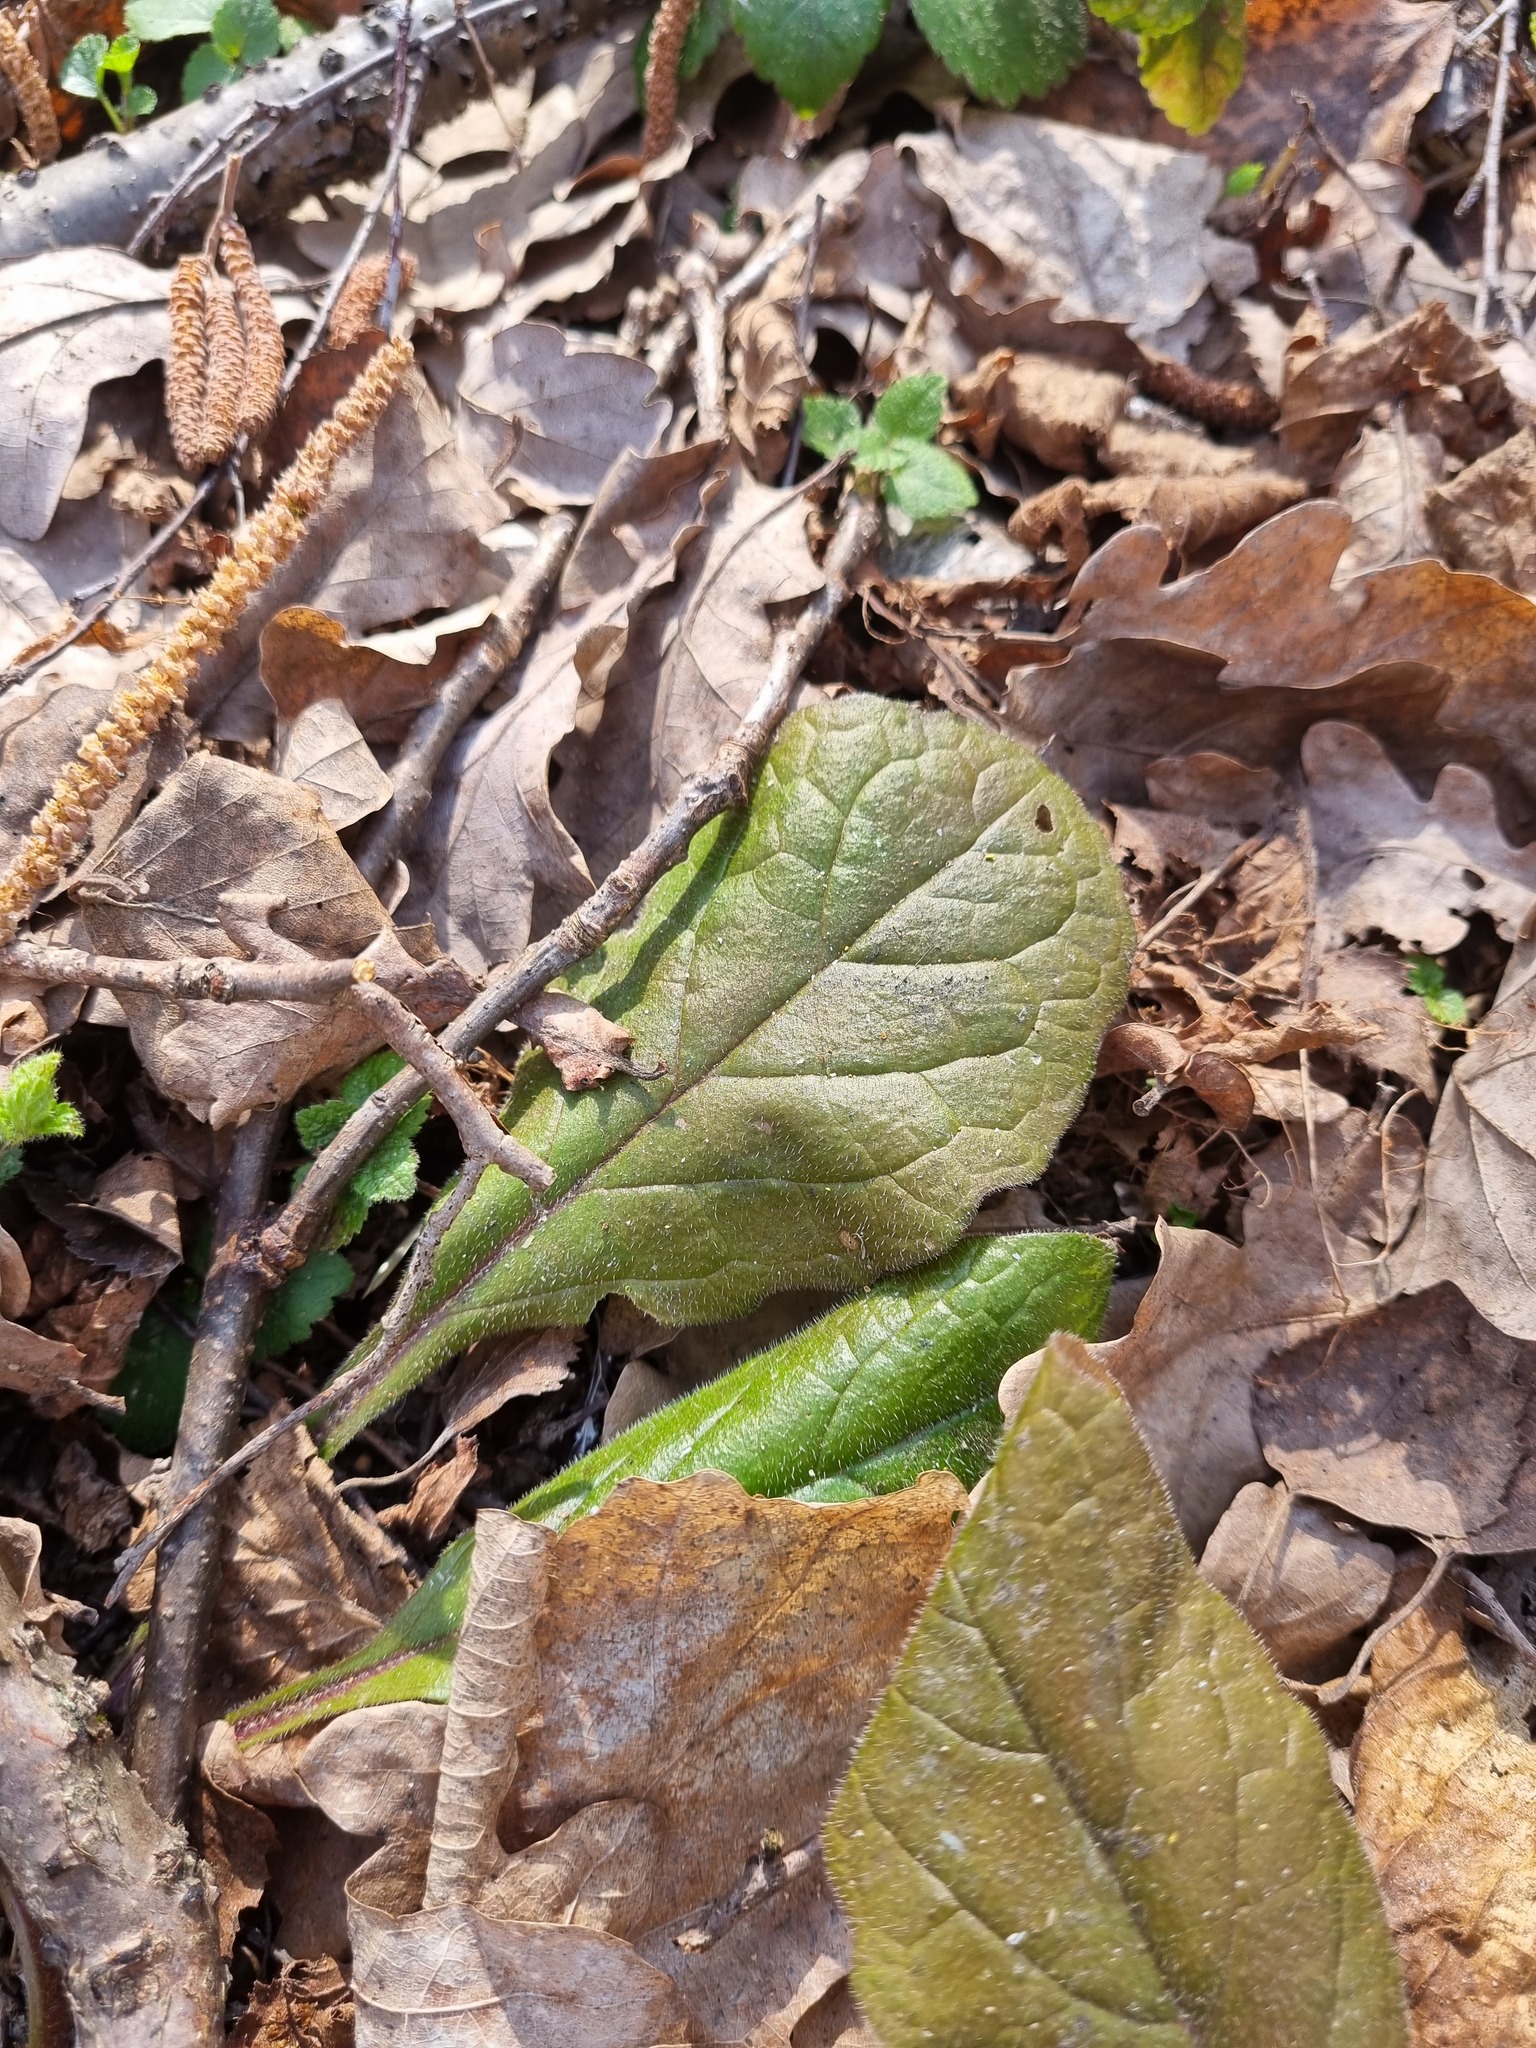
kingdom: Plantae
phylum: Tracheophyta
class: Magnoliopsida
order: Lamiales
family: Lamiaceae
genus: Ajuga
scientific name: Ajuga reptans
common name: Bugle
